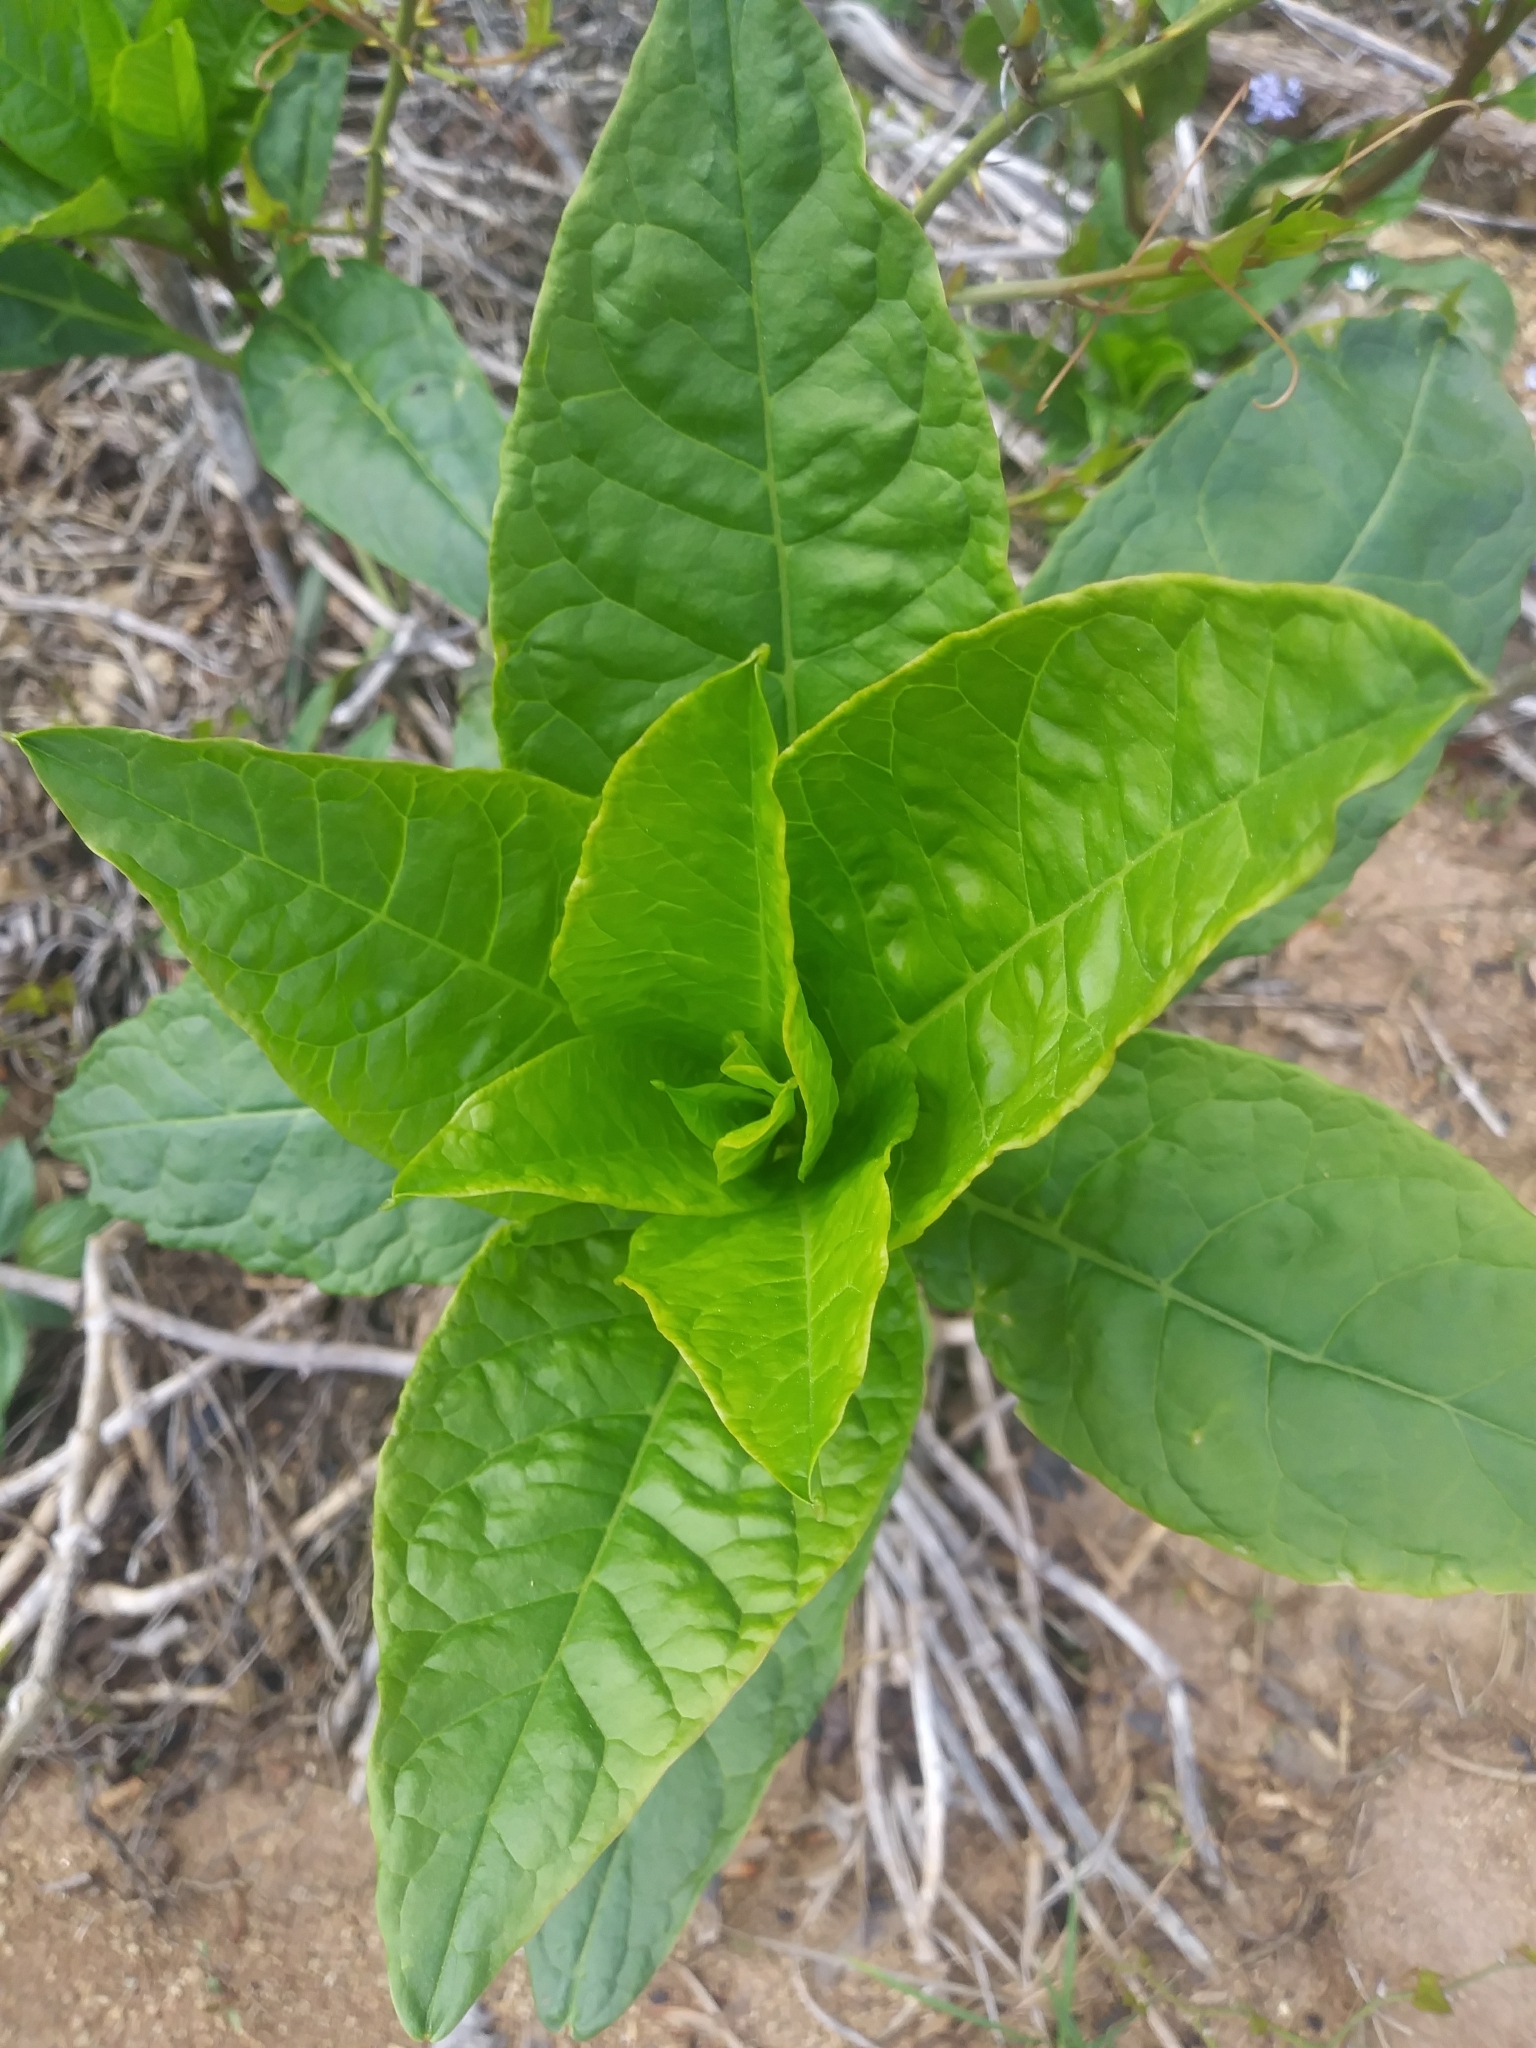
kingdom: Plantae
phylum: Tracheophyta
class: Magnoliopsida
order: Caryophyllales
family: Phytolaccaceae
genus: Phytolacca
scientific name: Phytolacca americana
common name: American pokeweed
